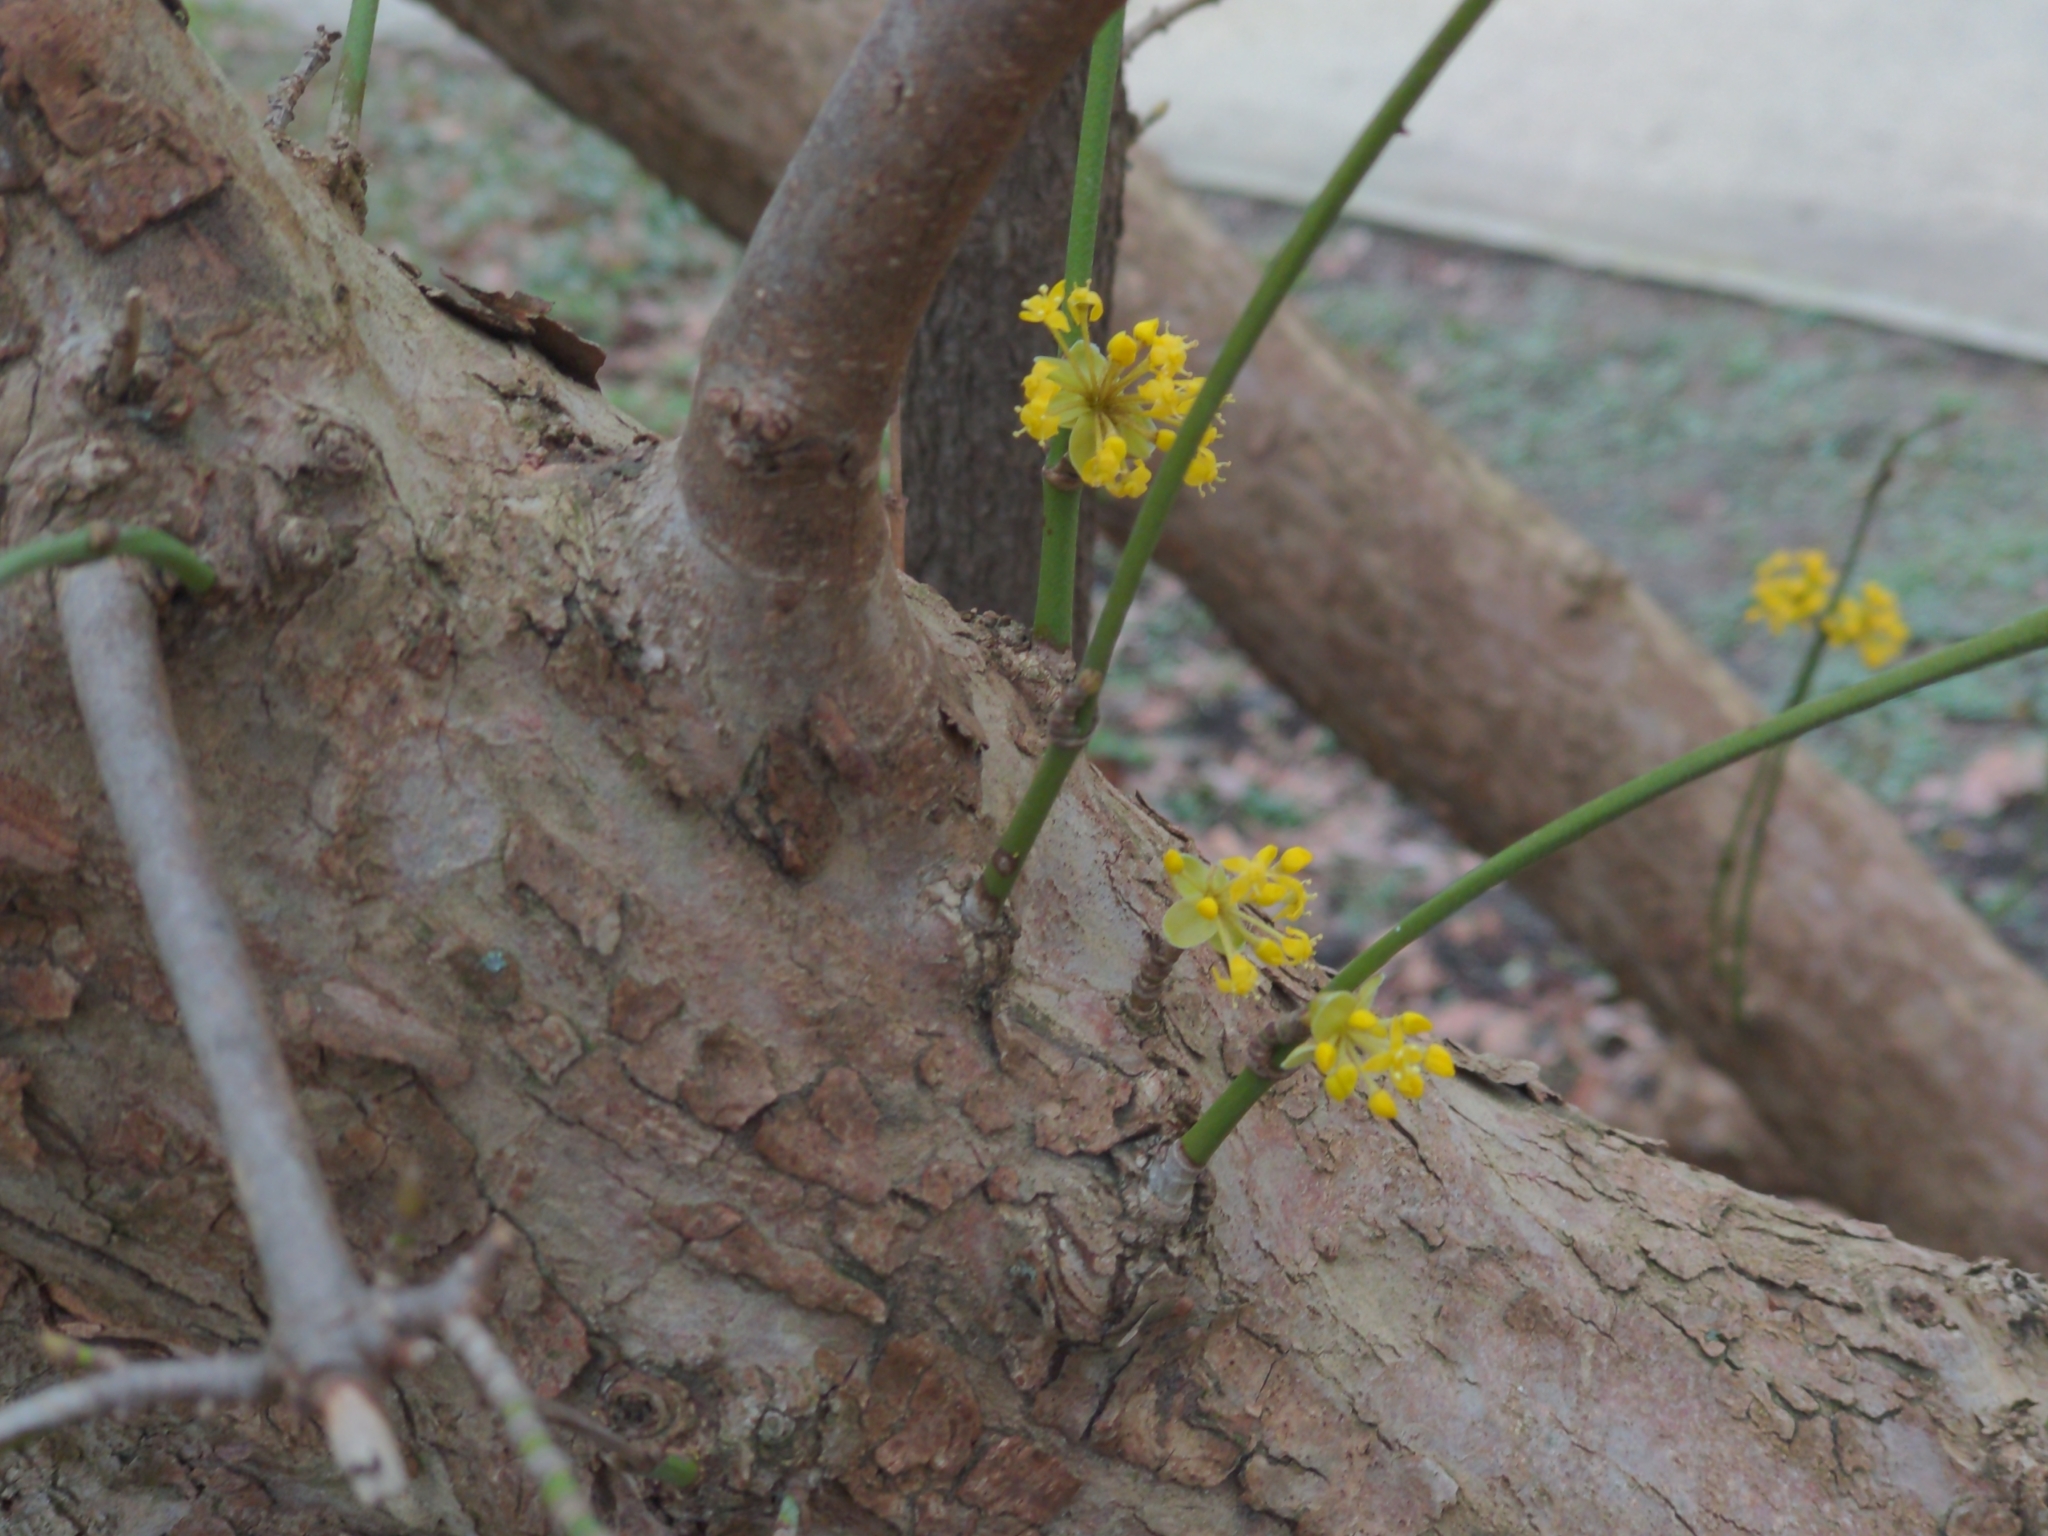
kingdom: Plantae
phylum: Tracheophyta
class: Magnoliopsida
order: Cornales
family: Cornaceae
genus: Cornus
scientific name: Cornus mas
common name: Cornelian-cherry
